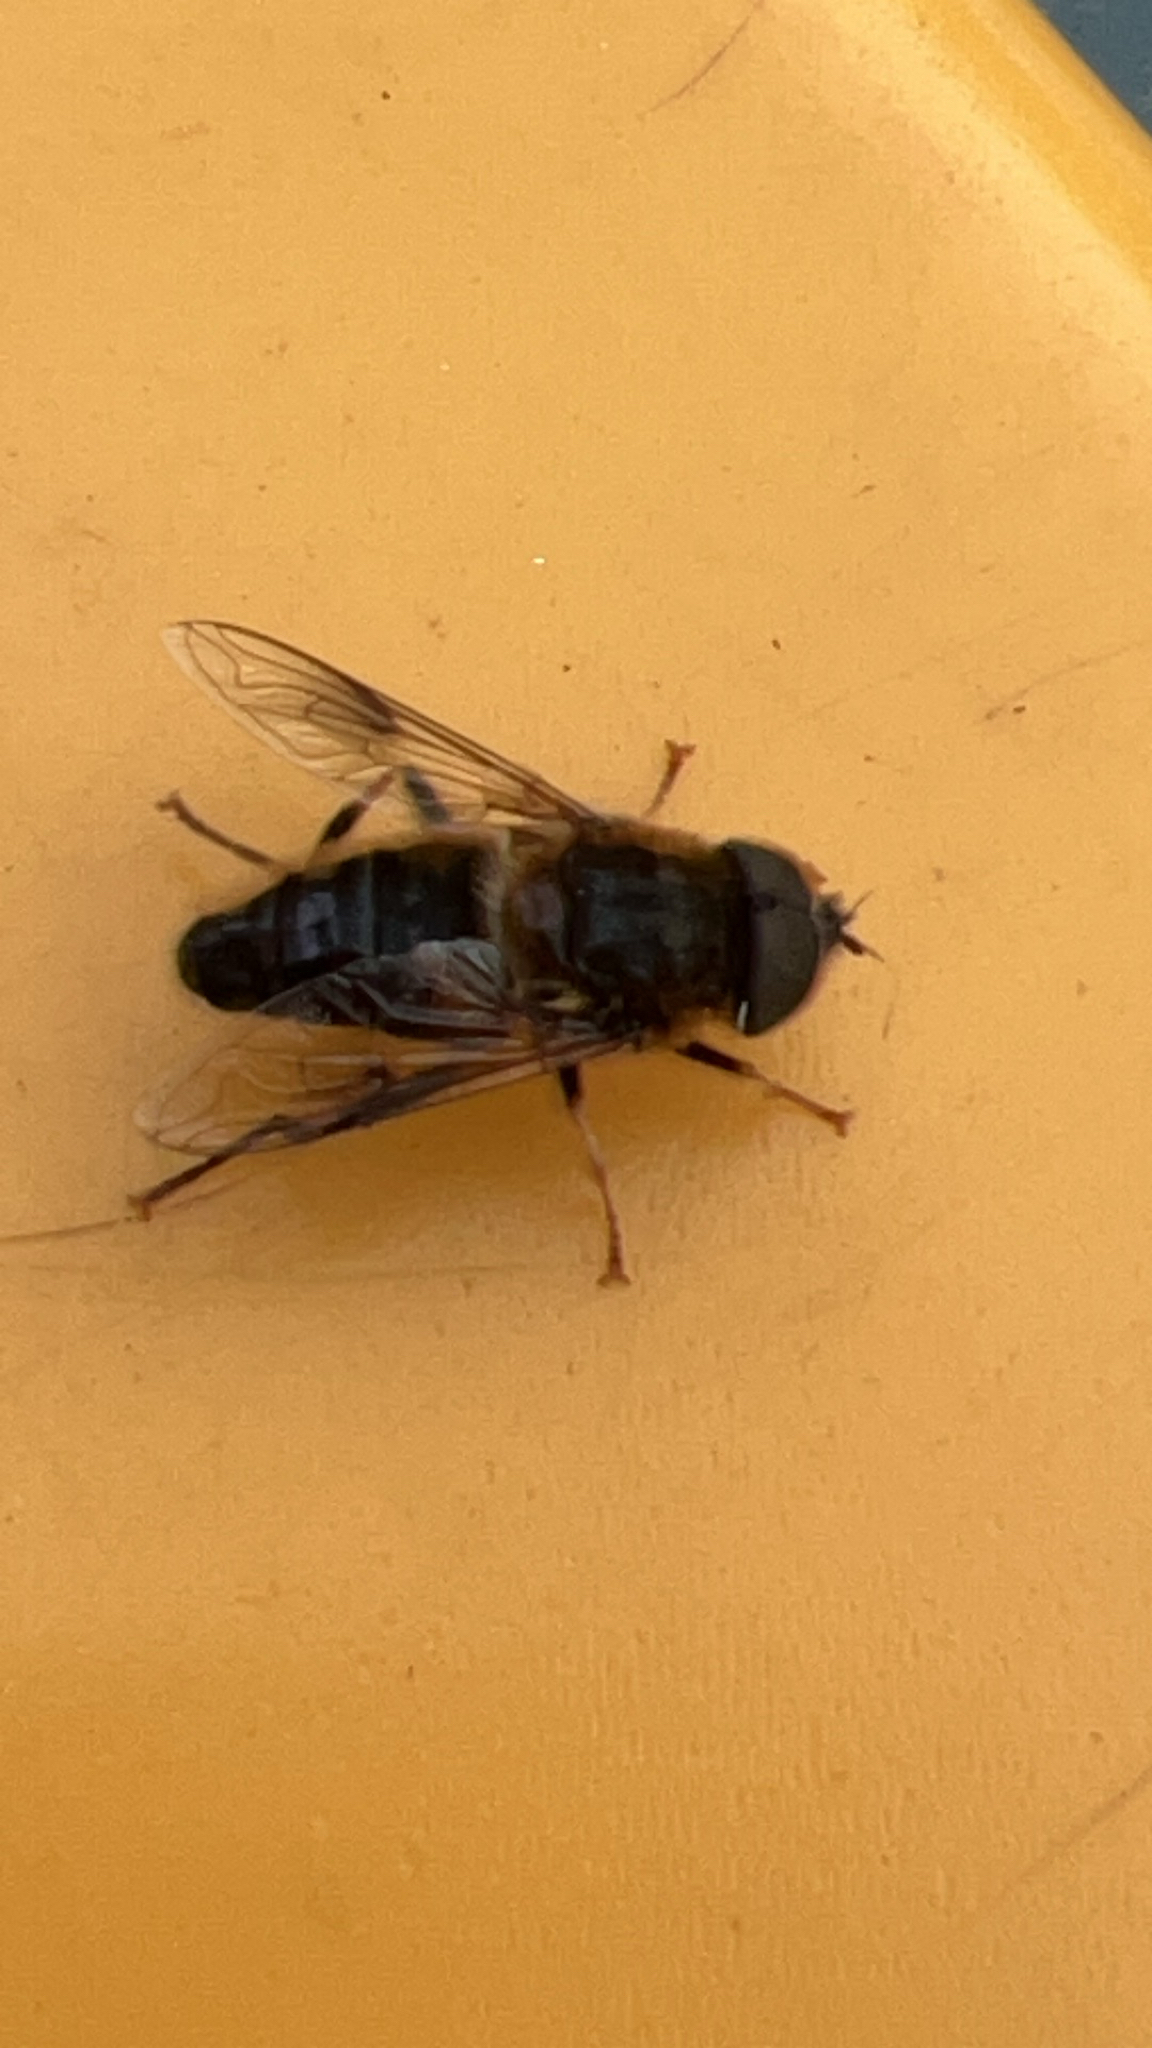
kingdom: Animalia
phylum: Arthropoda
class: Insecta
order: Diptera
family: Syrphidae
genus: Eristalis
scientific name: Eristalis pertinax
